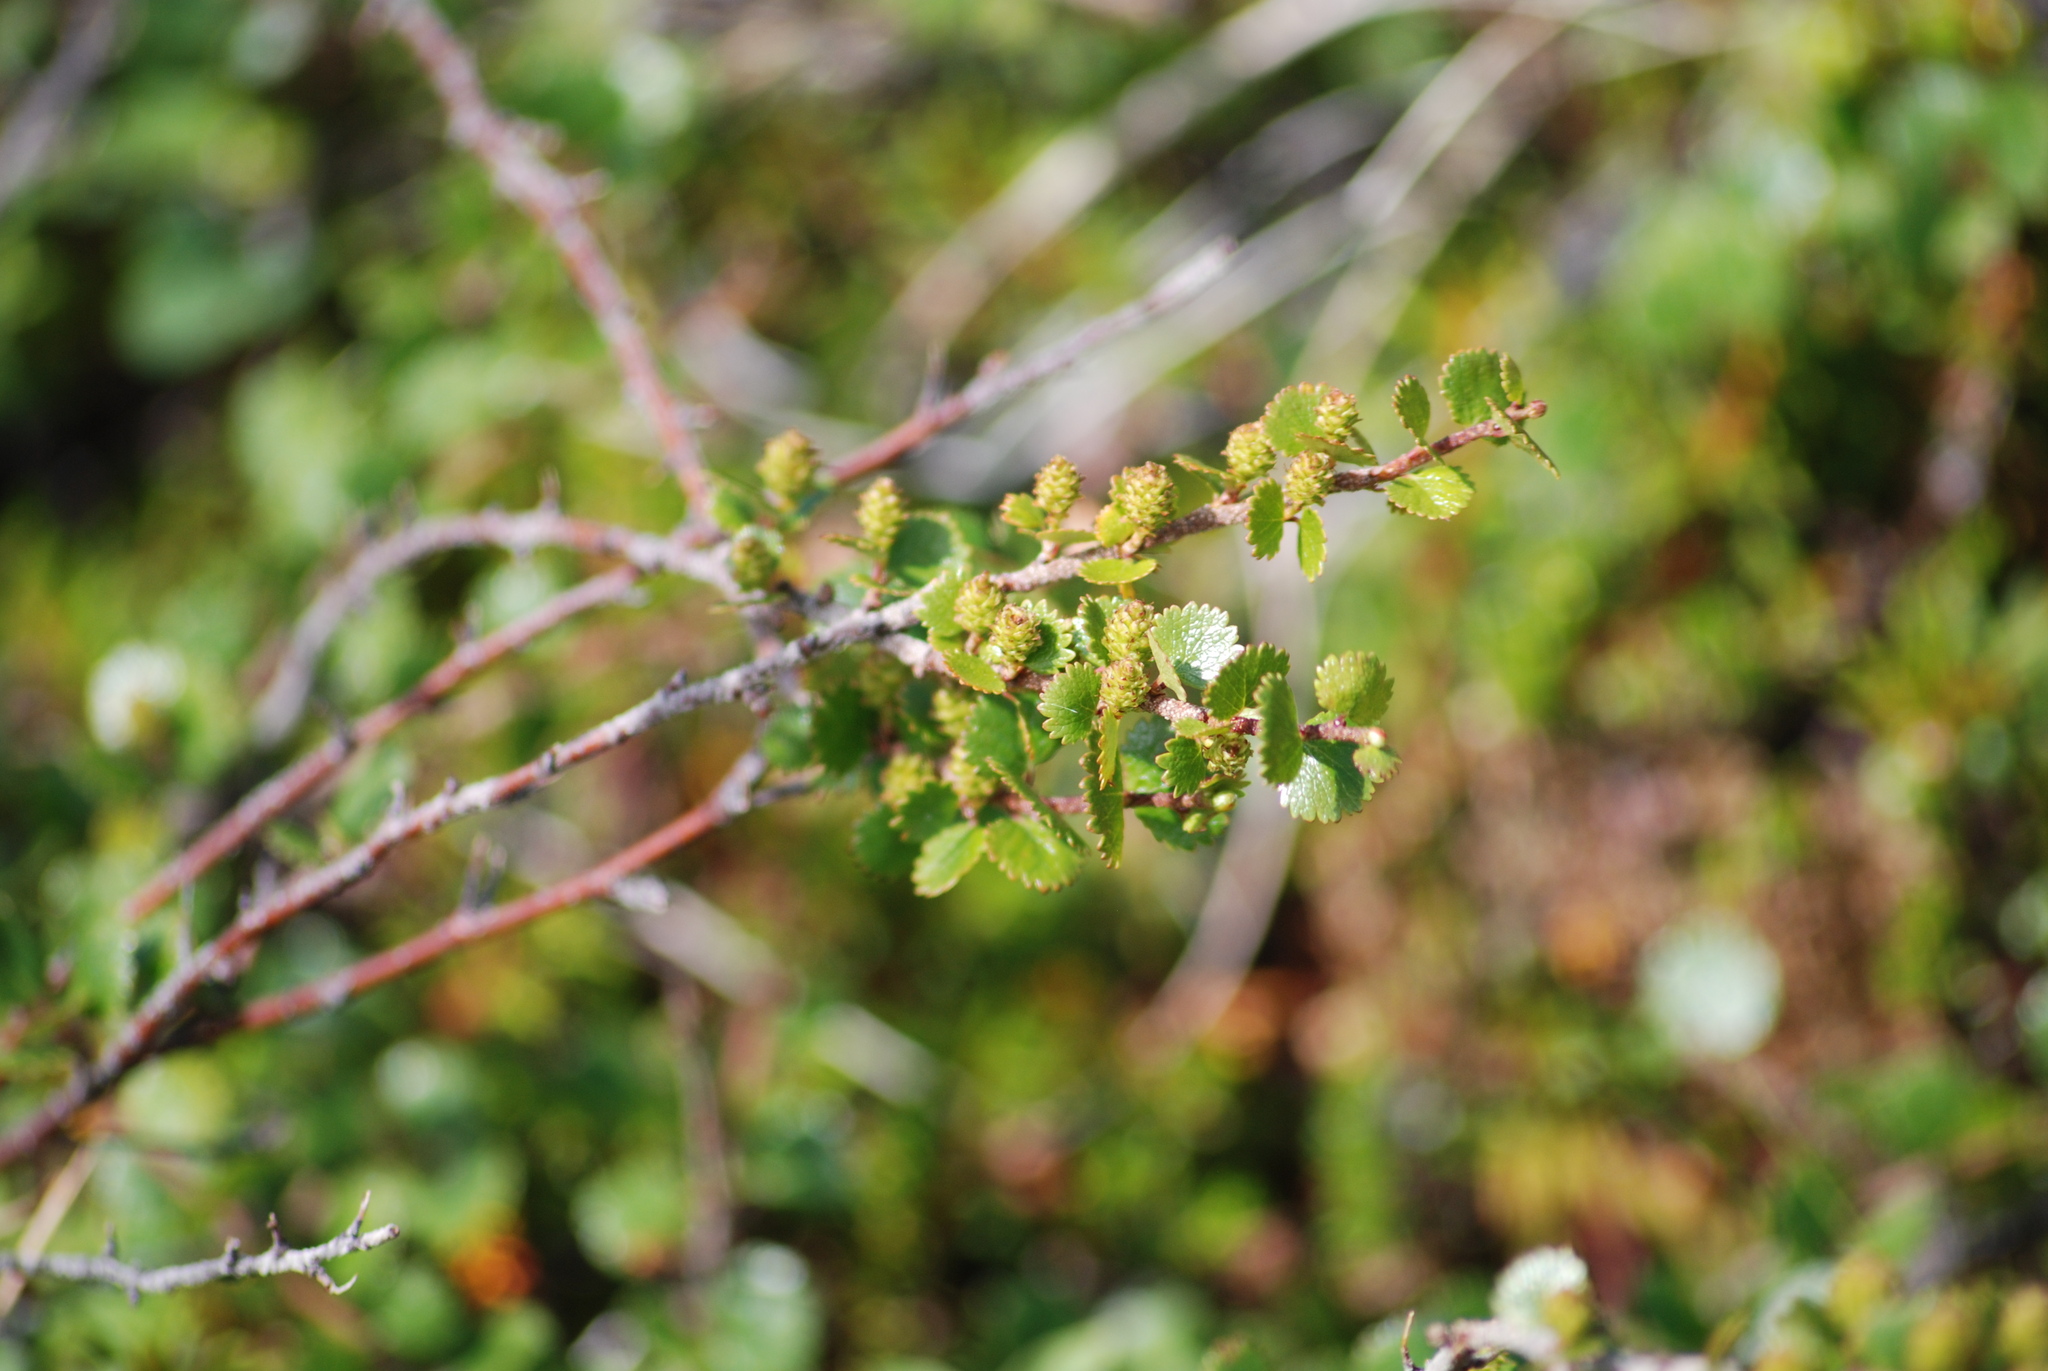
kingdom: Plantae
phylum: Tracheophyta
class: Magnoliopsida
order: Fagales
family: Betulaceae
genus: Betula
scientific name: Betula glandulosa
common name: Dwarf birch
